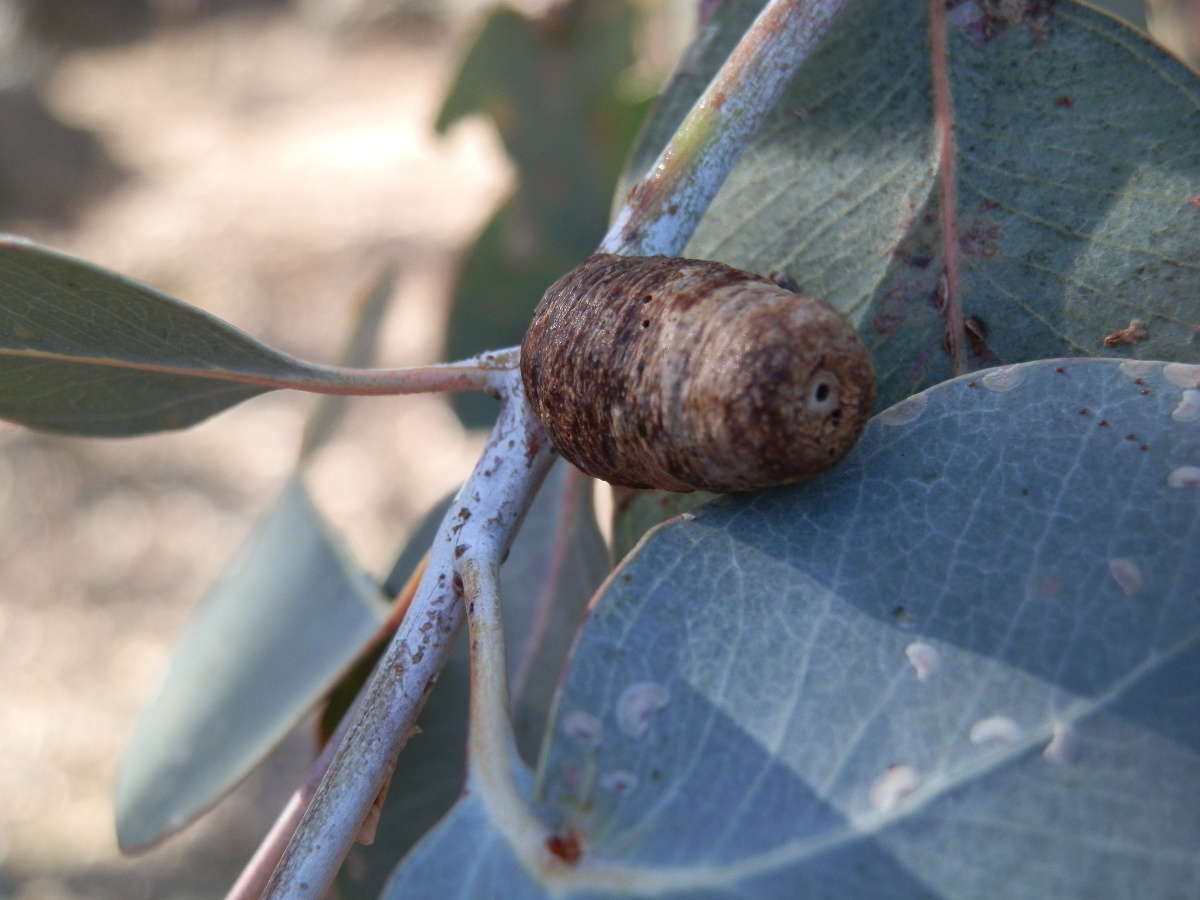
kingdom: Animalia
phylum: Arthropoda
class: Insecta
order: Hemiptera
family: Eriococcidae
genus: Apiomorpha
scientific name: Apiomorpha frenchi
